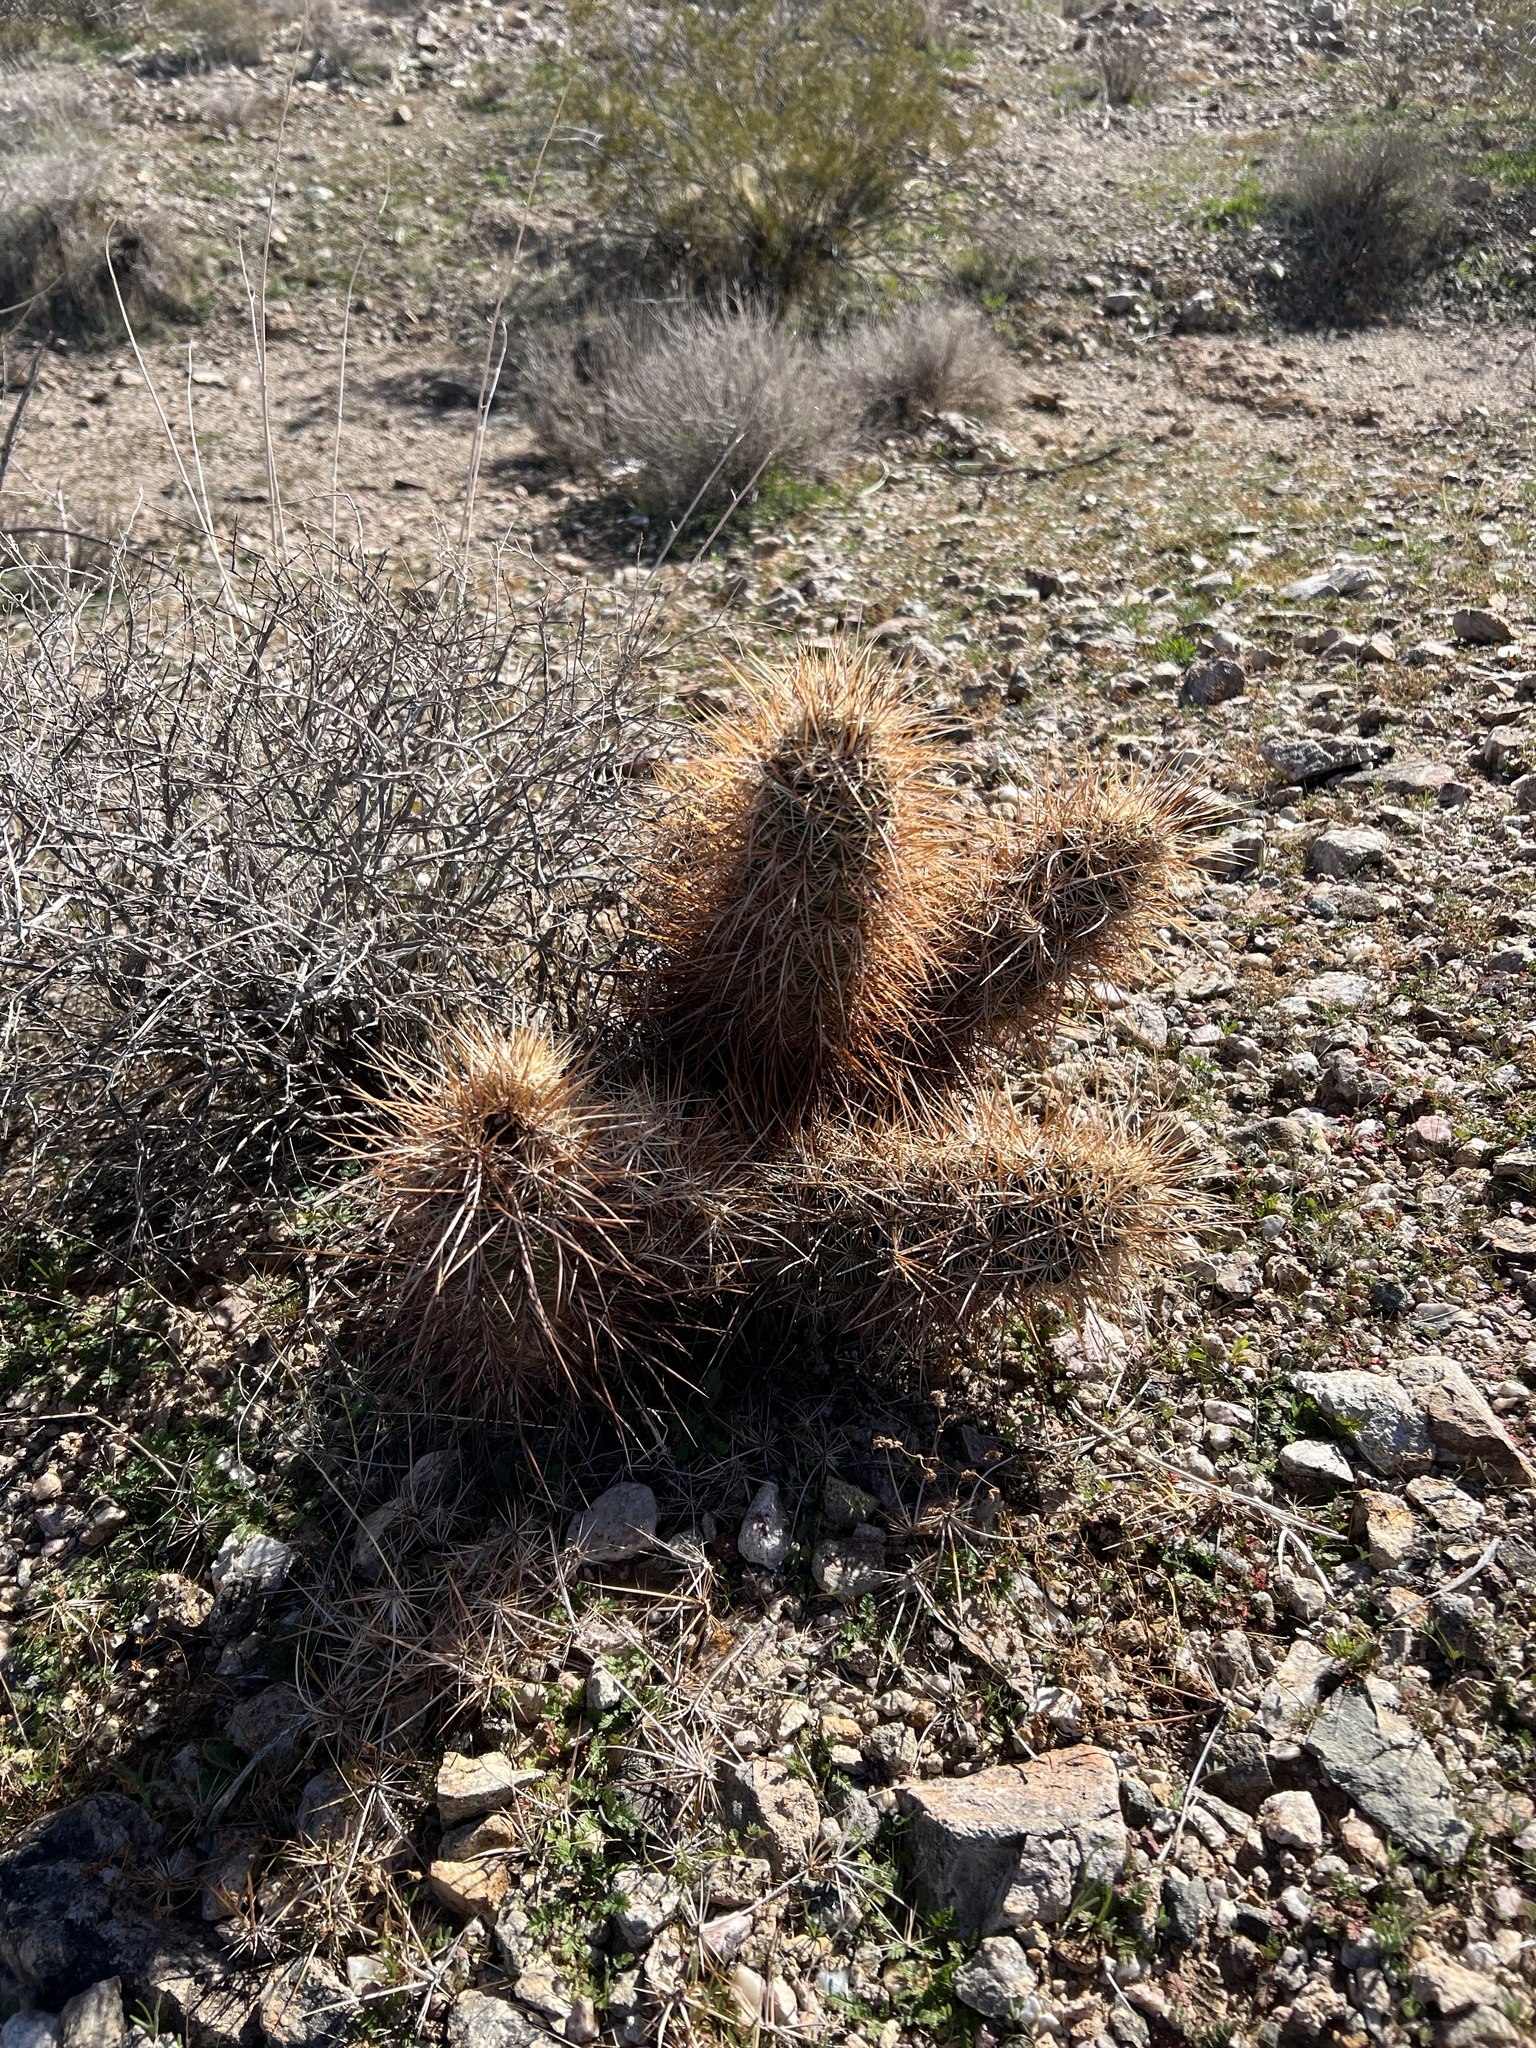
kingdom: Plantae
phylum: Tracheophyta
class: Magnoliopsida
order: Caryophyllales
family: Cactaceae
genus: Echinocereus
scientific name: Echinocereus engelmannii
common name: Engelmann's hedgehog cactus
